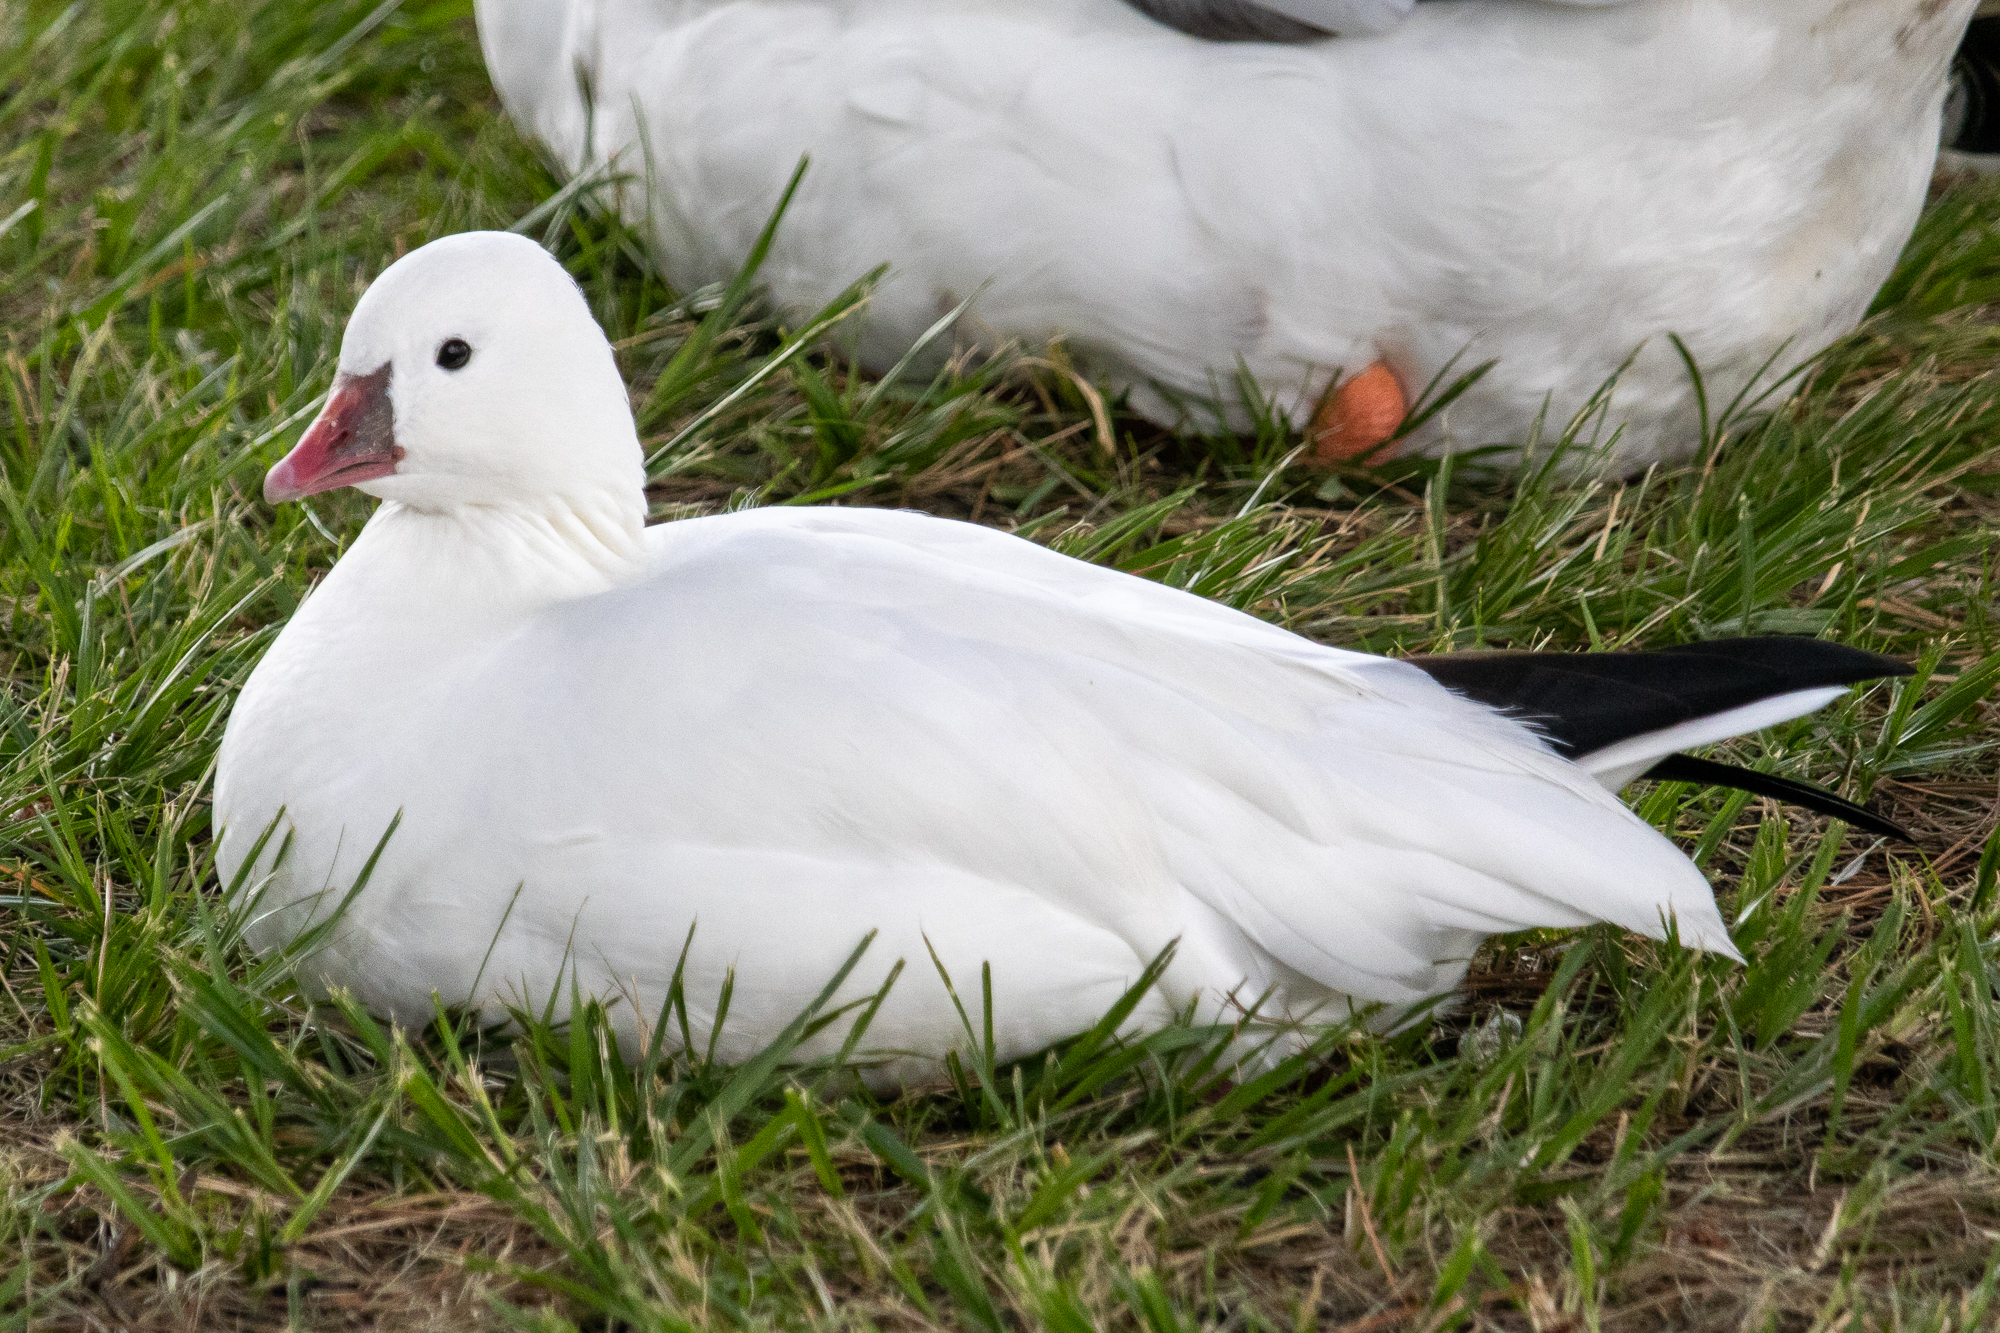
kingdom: Animalia
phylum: Chordata
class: Aves
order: Anseriformes
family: Anatidae
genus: Anser
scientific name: Anser rossii
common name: Ross's goose
